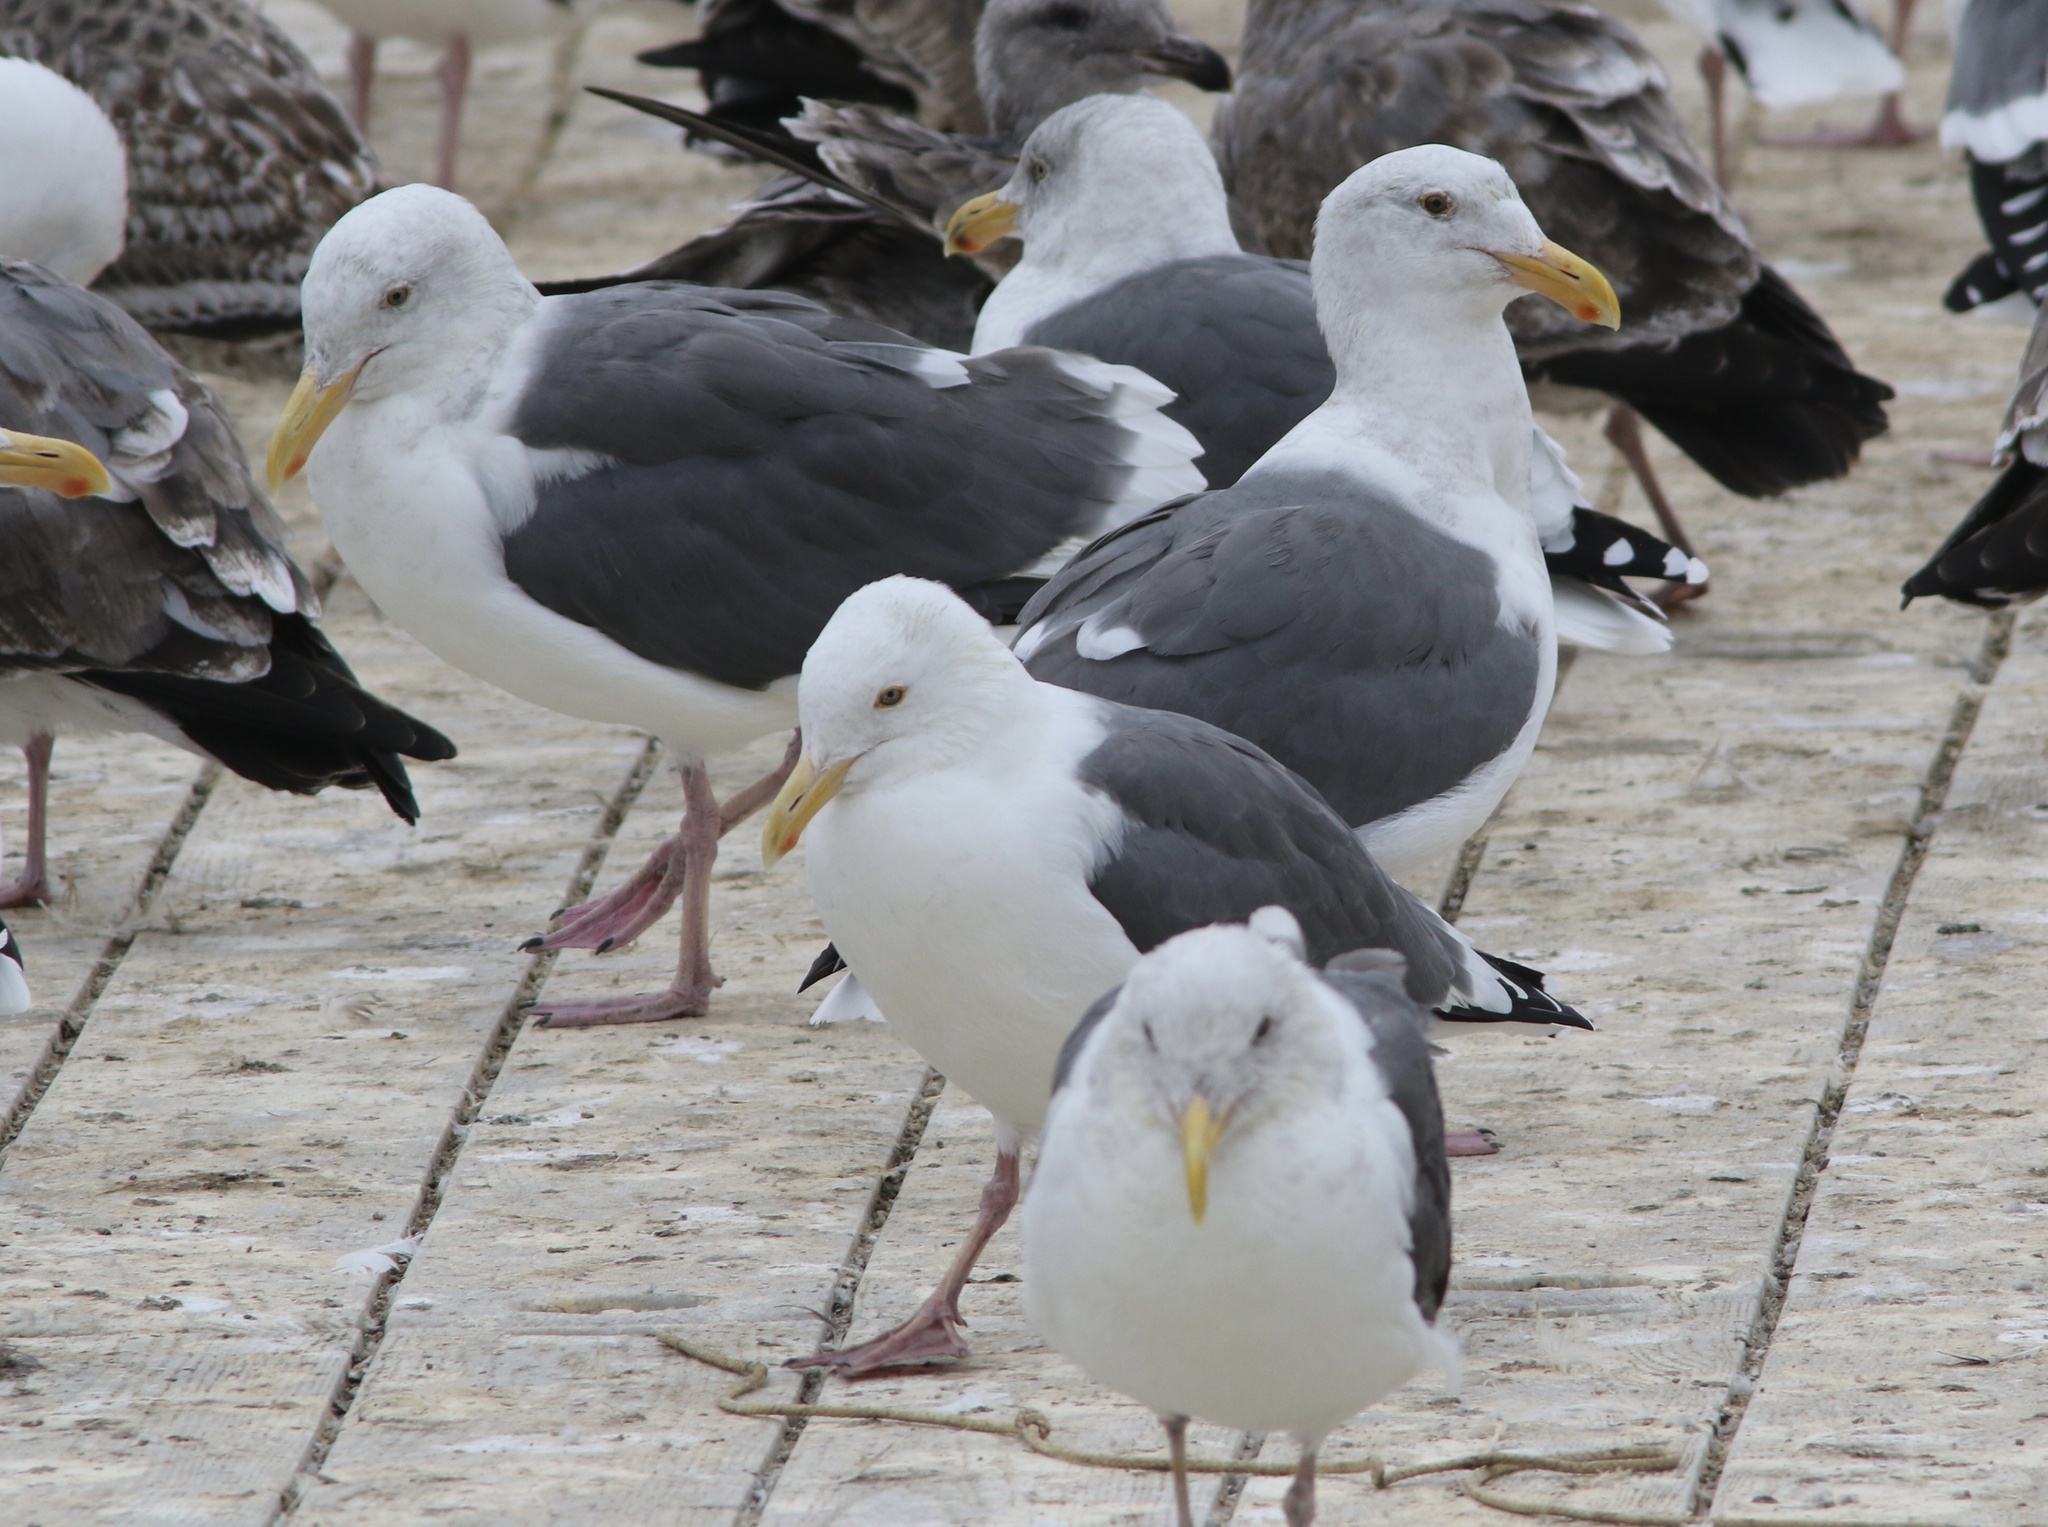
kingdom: Animalia
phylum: Chordata
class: Aves
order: Charadriiformes
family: Laridae
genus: Larus
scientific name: Larus occidentalis
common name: Western gull
